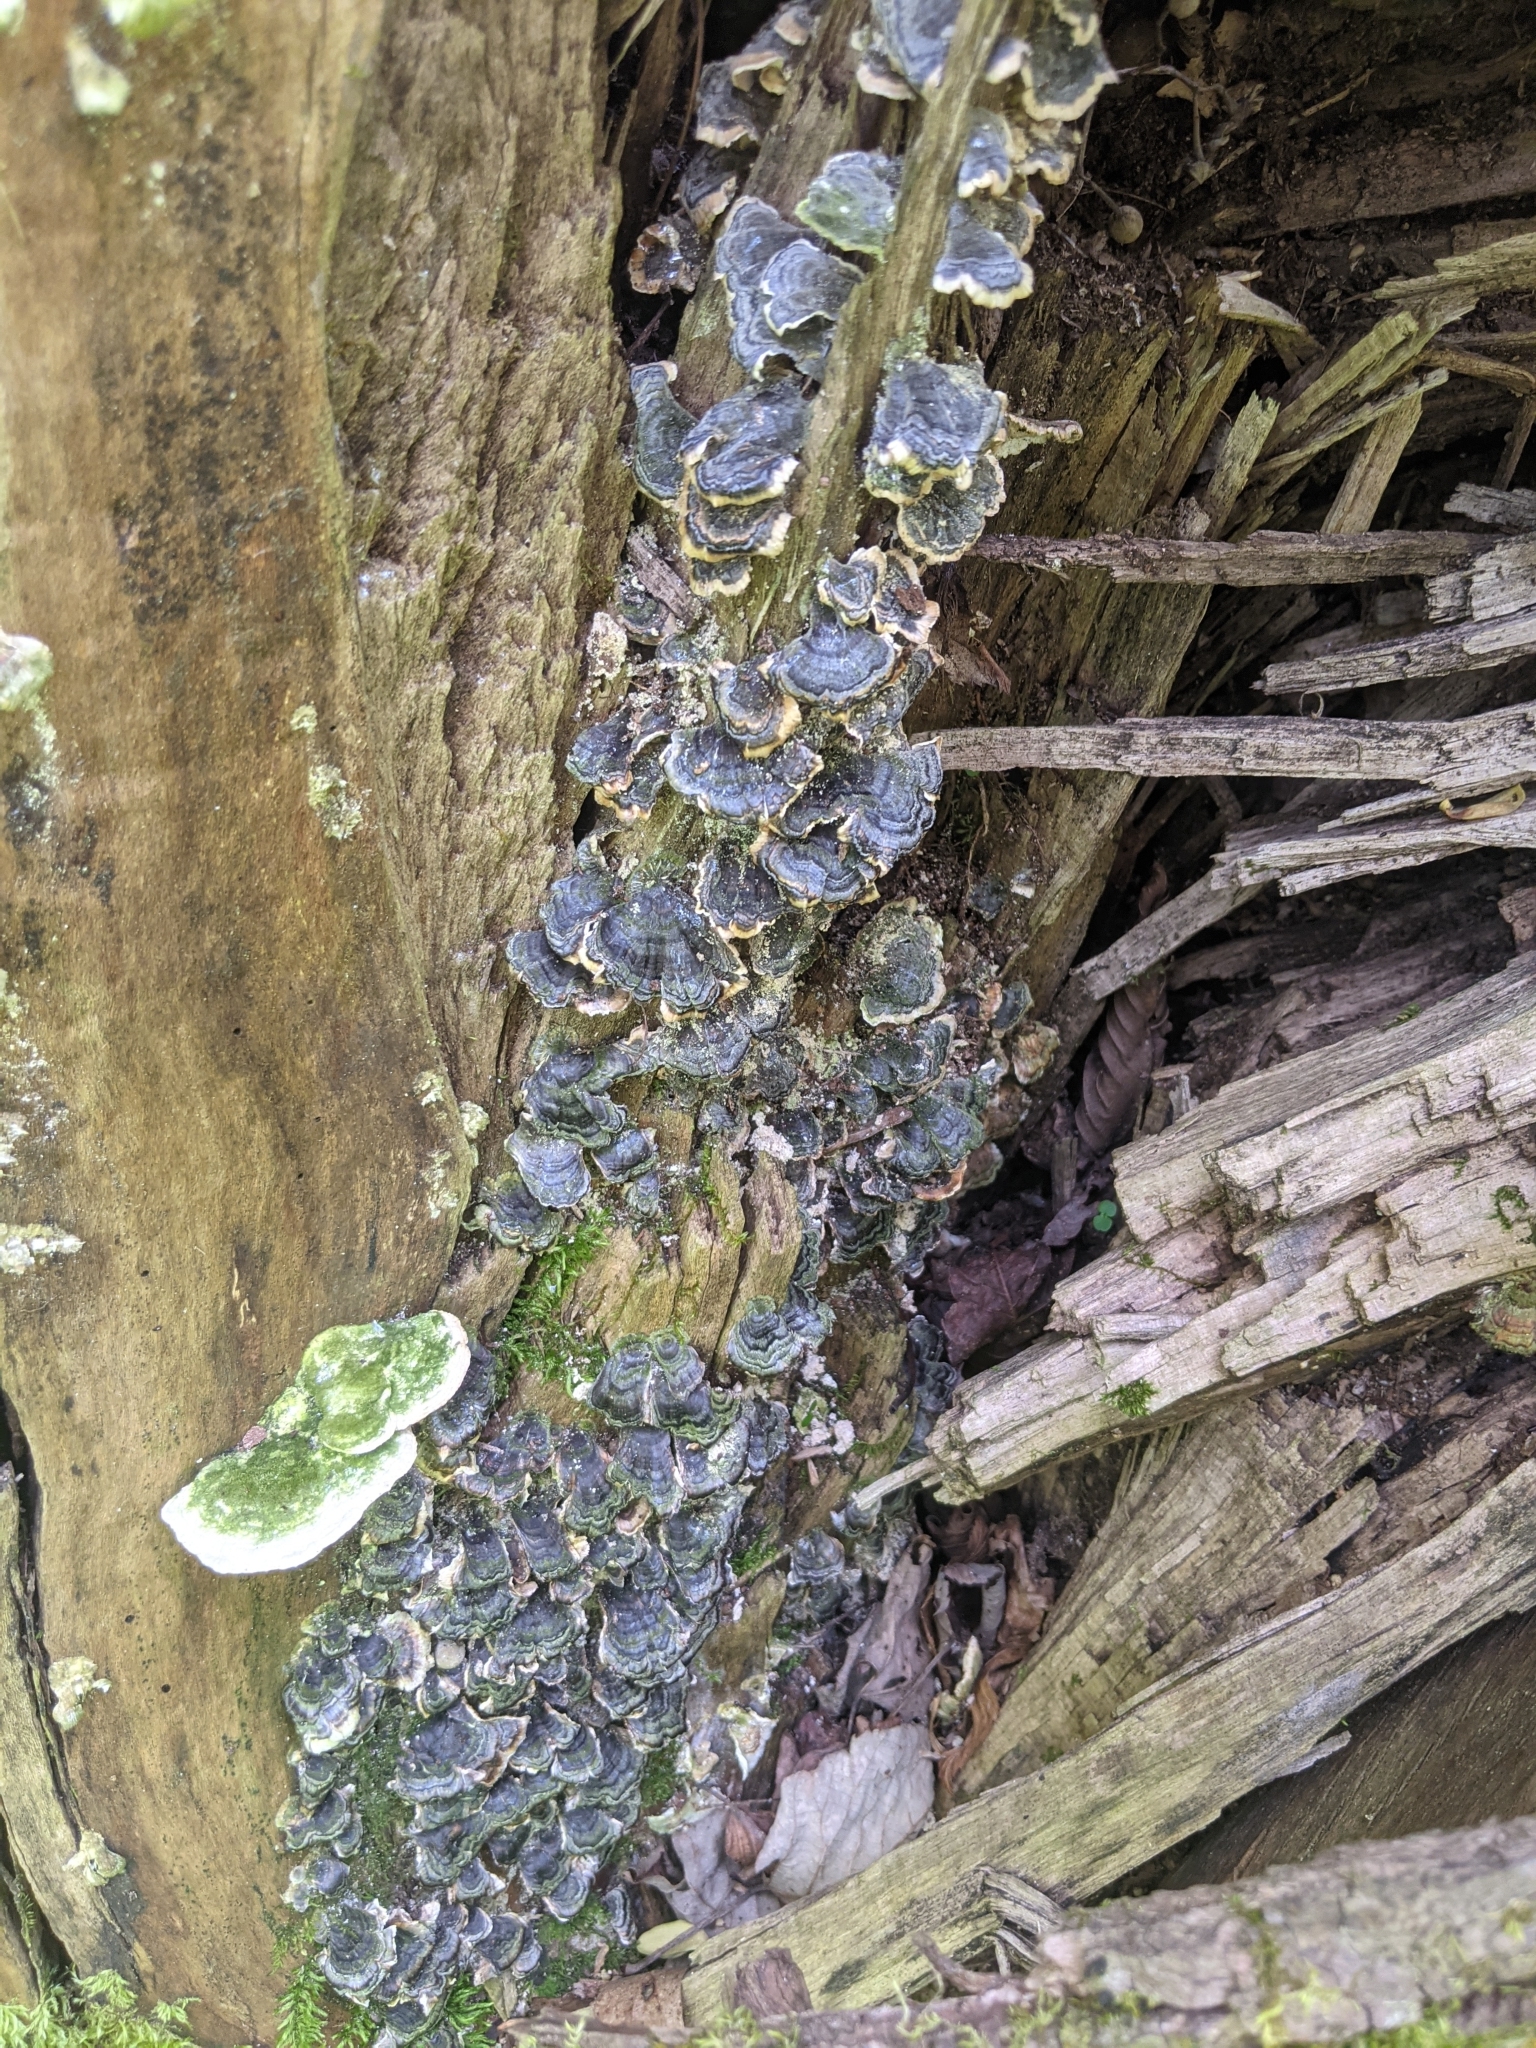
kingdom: Fungi
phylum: Basidiomycota
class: Agaricomycetes
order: Polyporales
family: Polyporaceae
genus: Trametes
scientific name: Trametes versicolor
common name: Turkeytail
